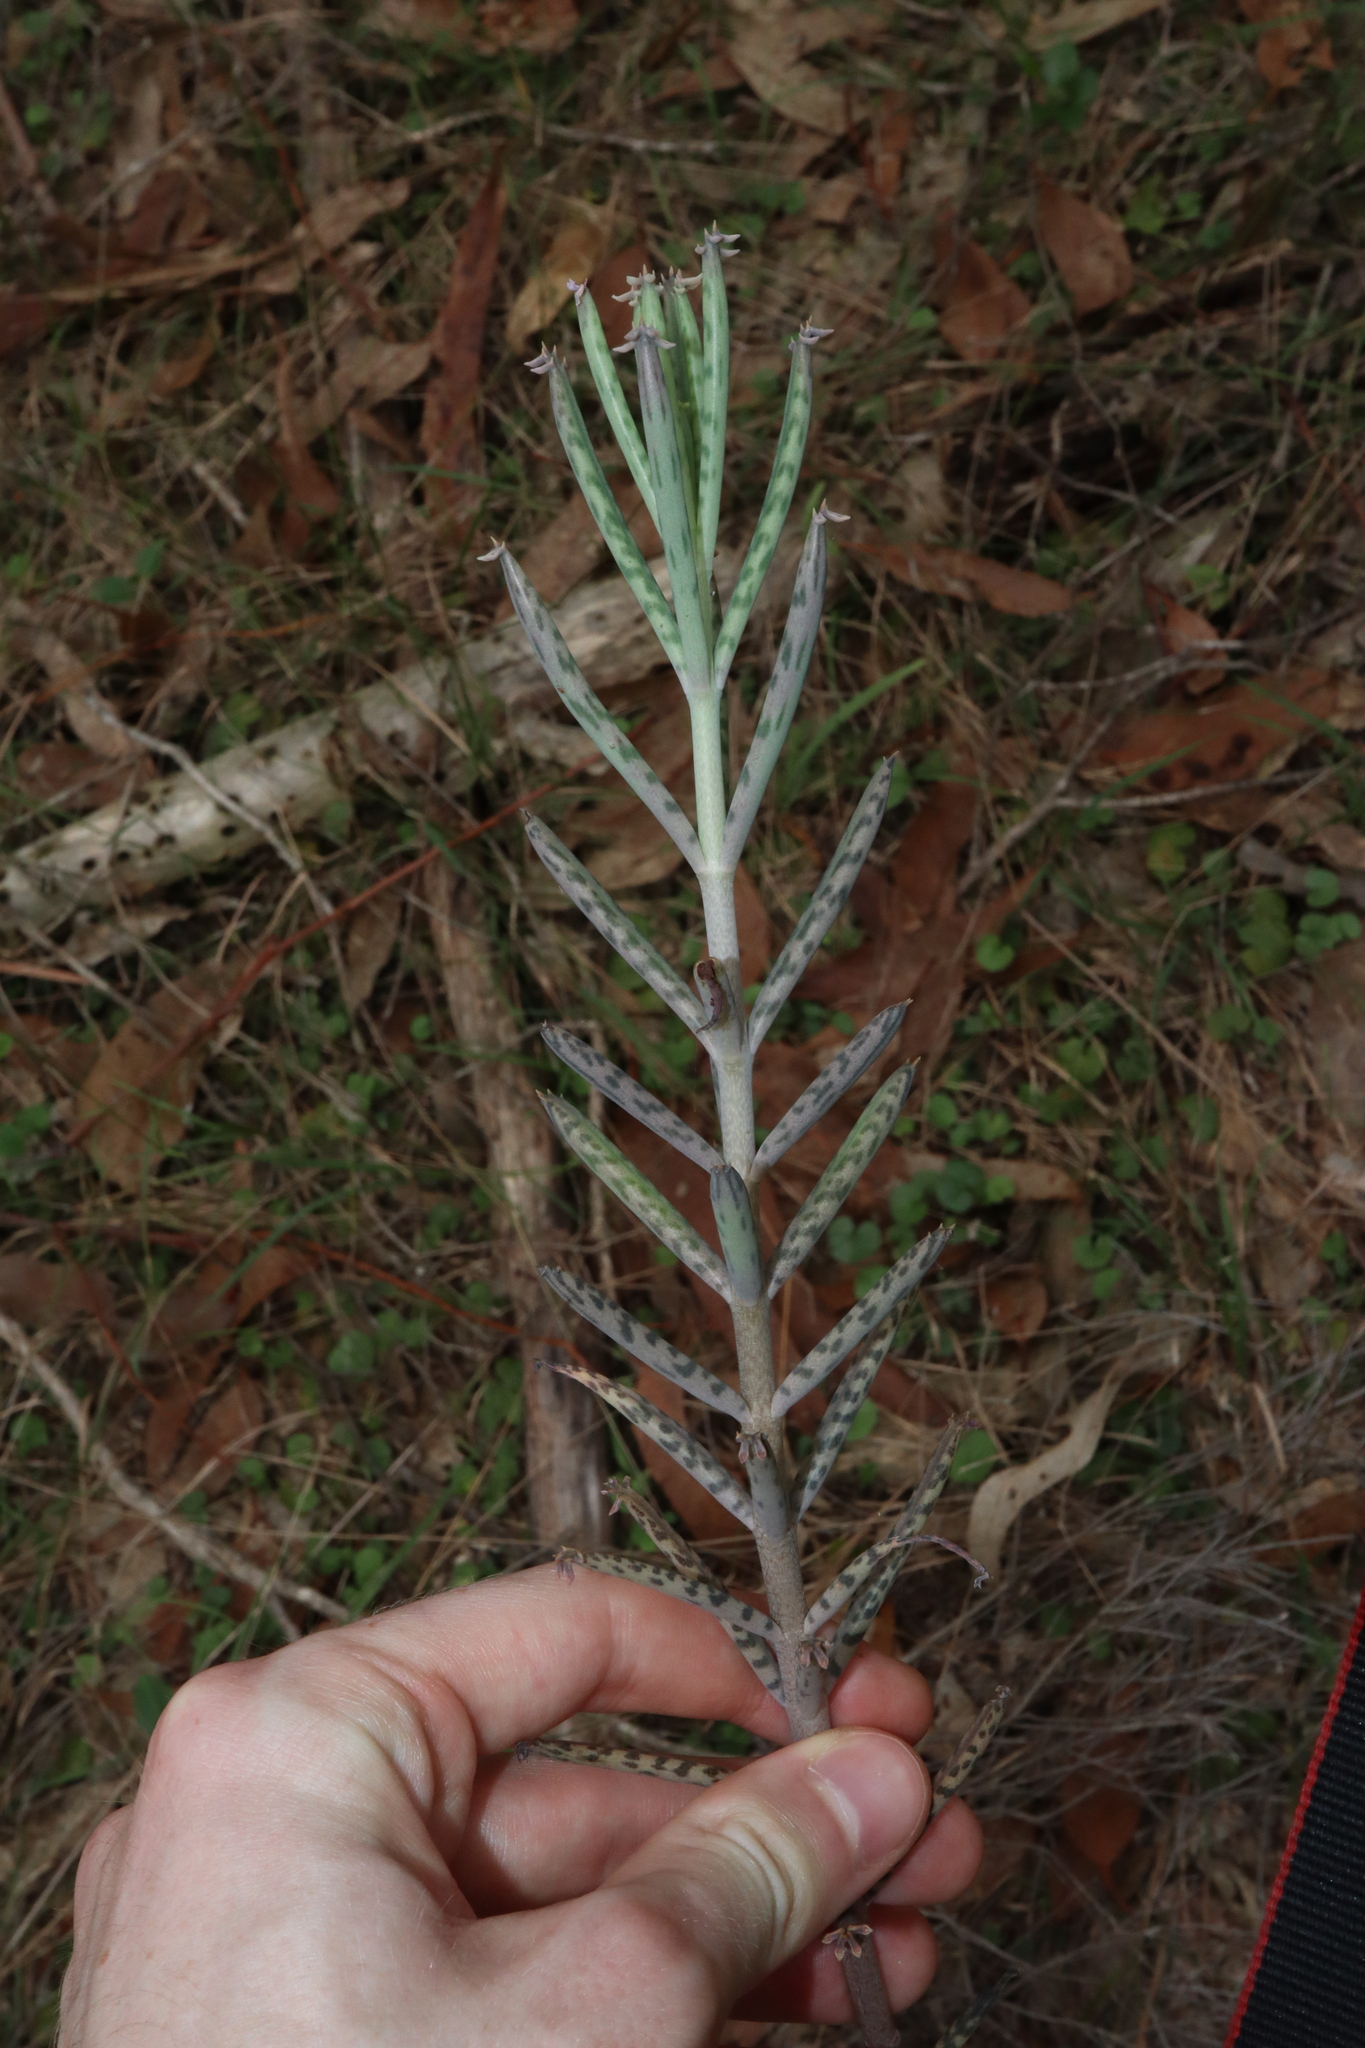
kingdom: Plantae
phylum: Tracheophyta
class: Magnoliopsida
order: Saxifragales
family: Crassulaceae
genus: Kalanchoe
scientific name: Kalanchoe delagoensis
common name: Chandelier plant
